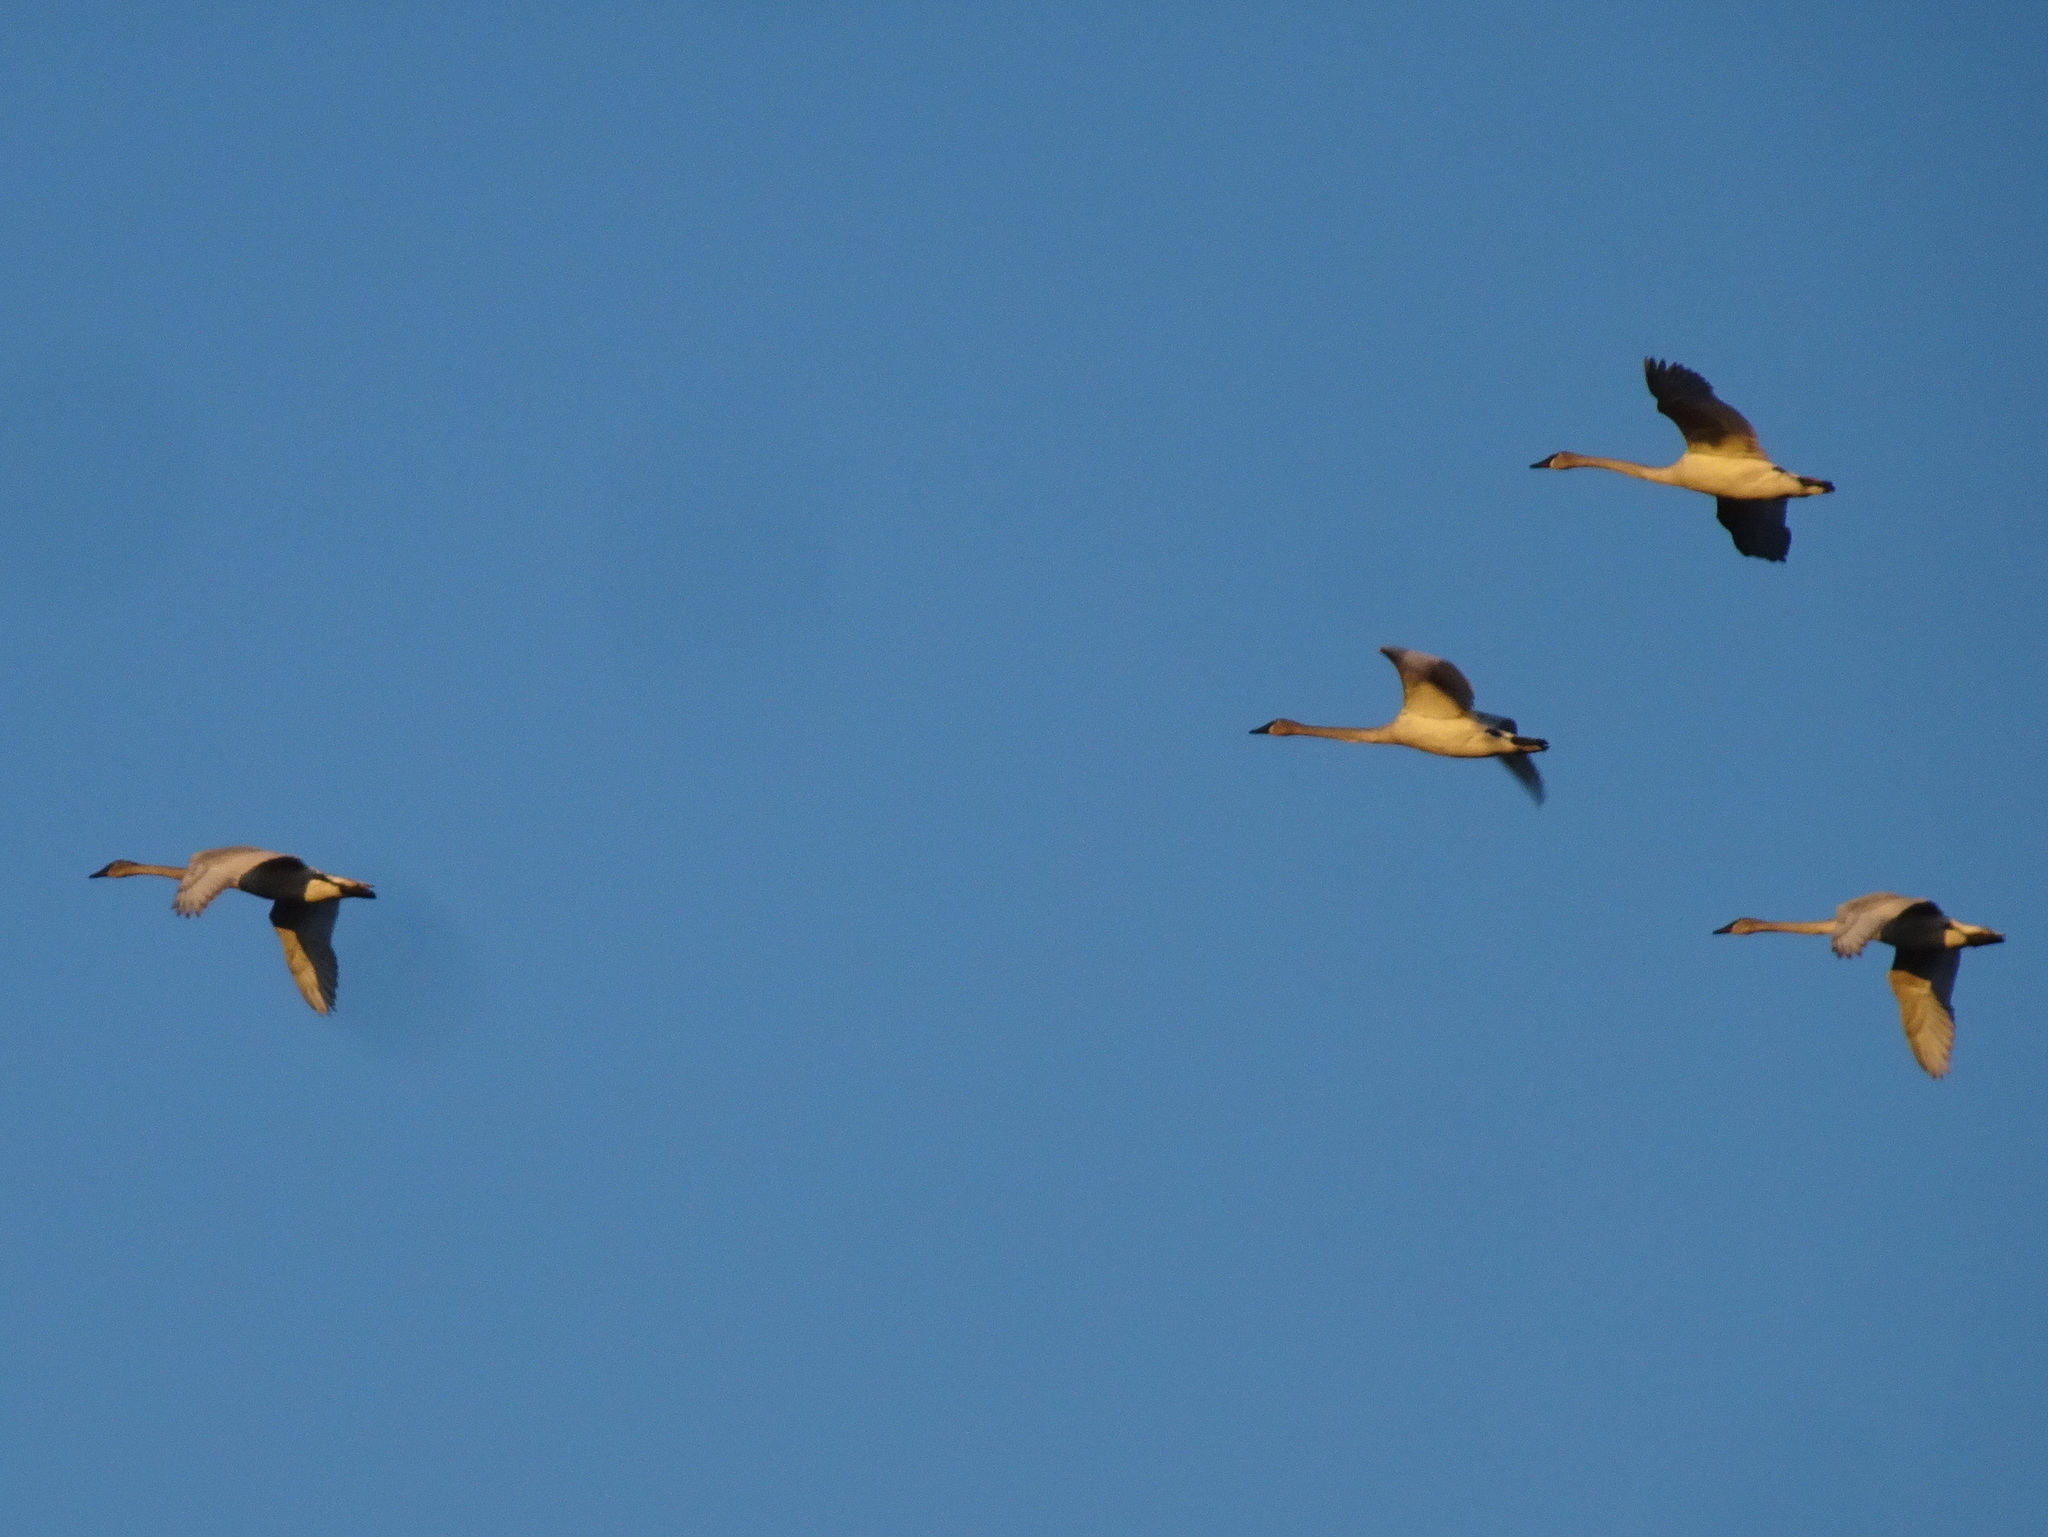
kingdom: Animalia
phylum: Chordata
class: Aves
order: Anseriformes
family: Anatidae
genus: Cygnus
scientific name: Cygnus buccinator
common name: Trumpeter swan
